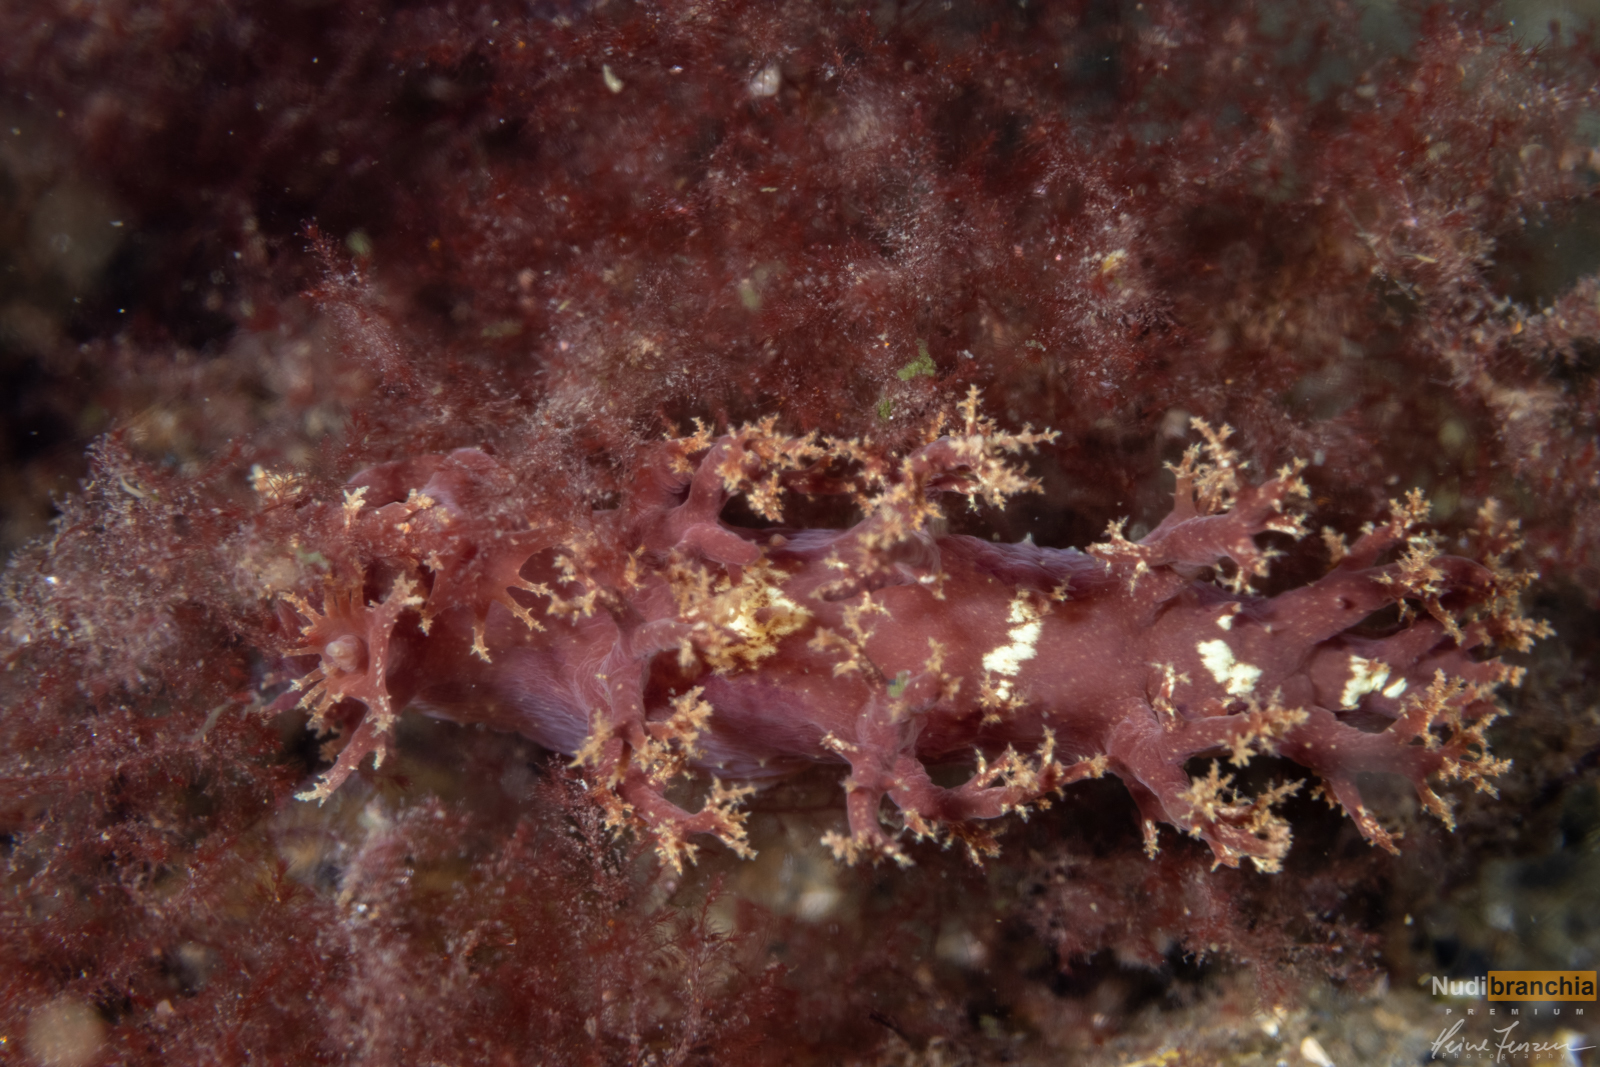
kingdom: Animalia
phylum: Mollusca
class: Gastropoda
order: Nudibranchia
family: Dendronotidae
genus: Dendronotus
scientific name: Dendronotus lacteus
